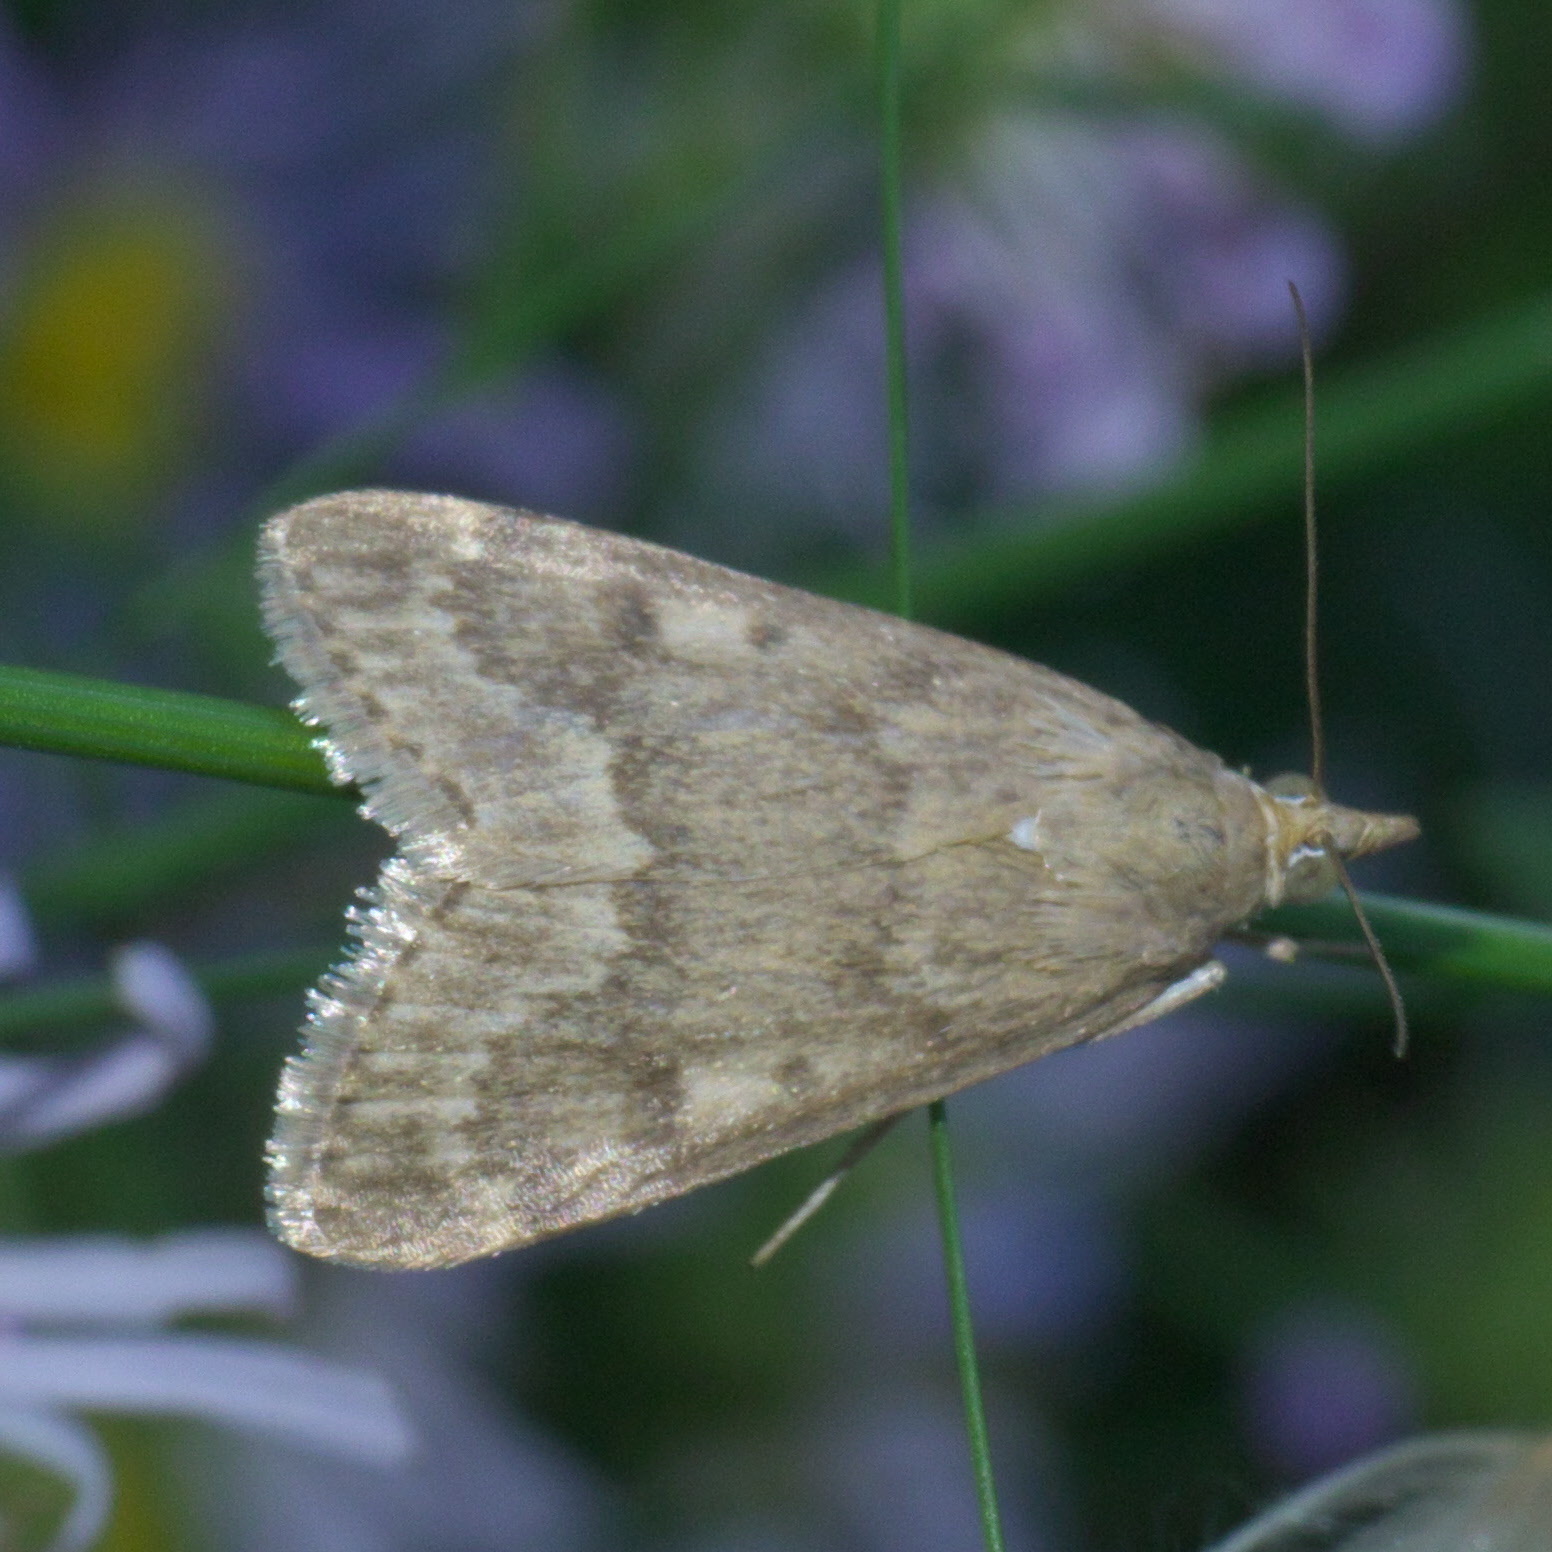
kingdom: Animalia
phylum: Arthropoda
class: Insecta
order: Lepidoptera
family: Crambidae
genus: Achyra
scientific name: Achyra rantalis
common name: Garden webworm
